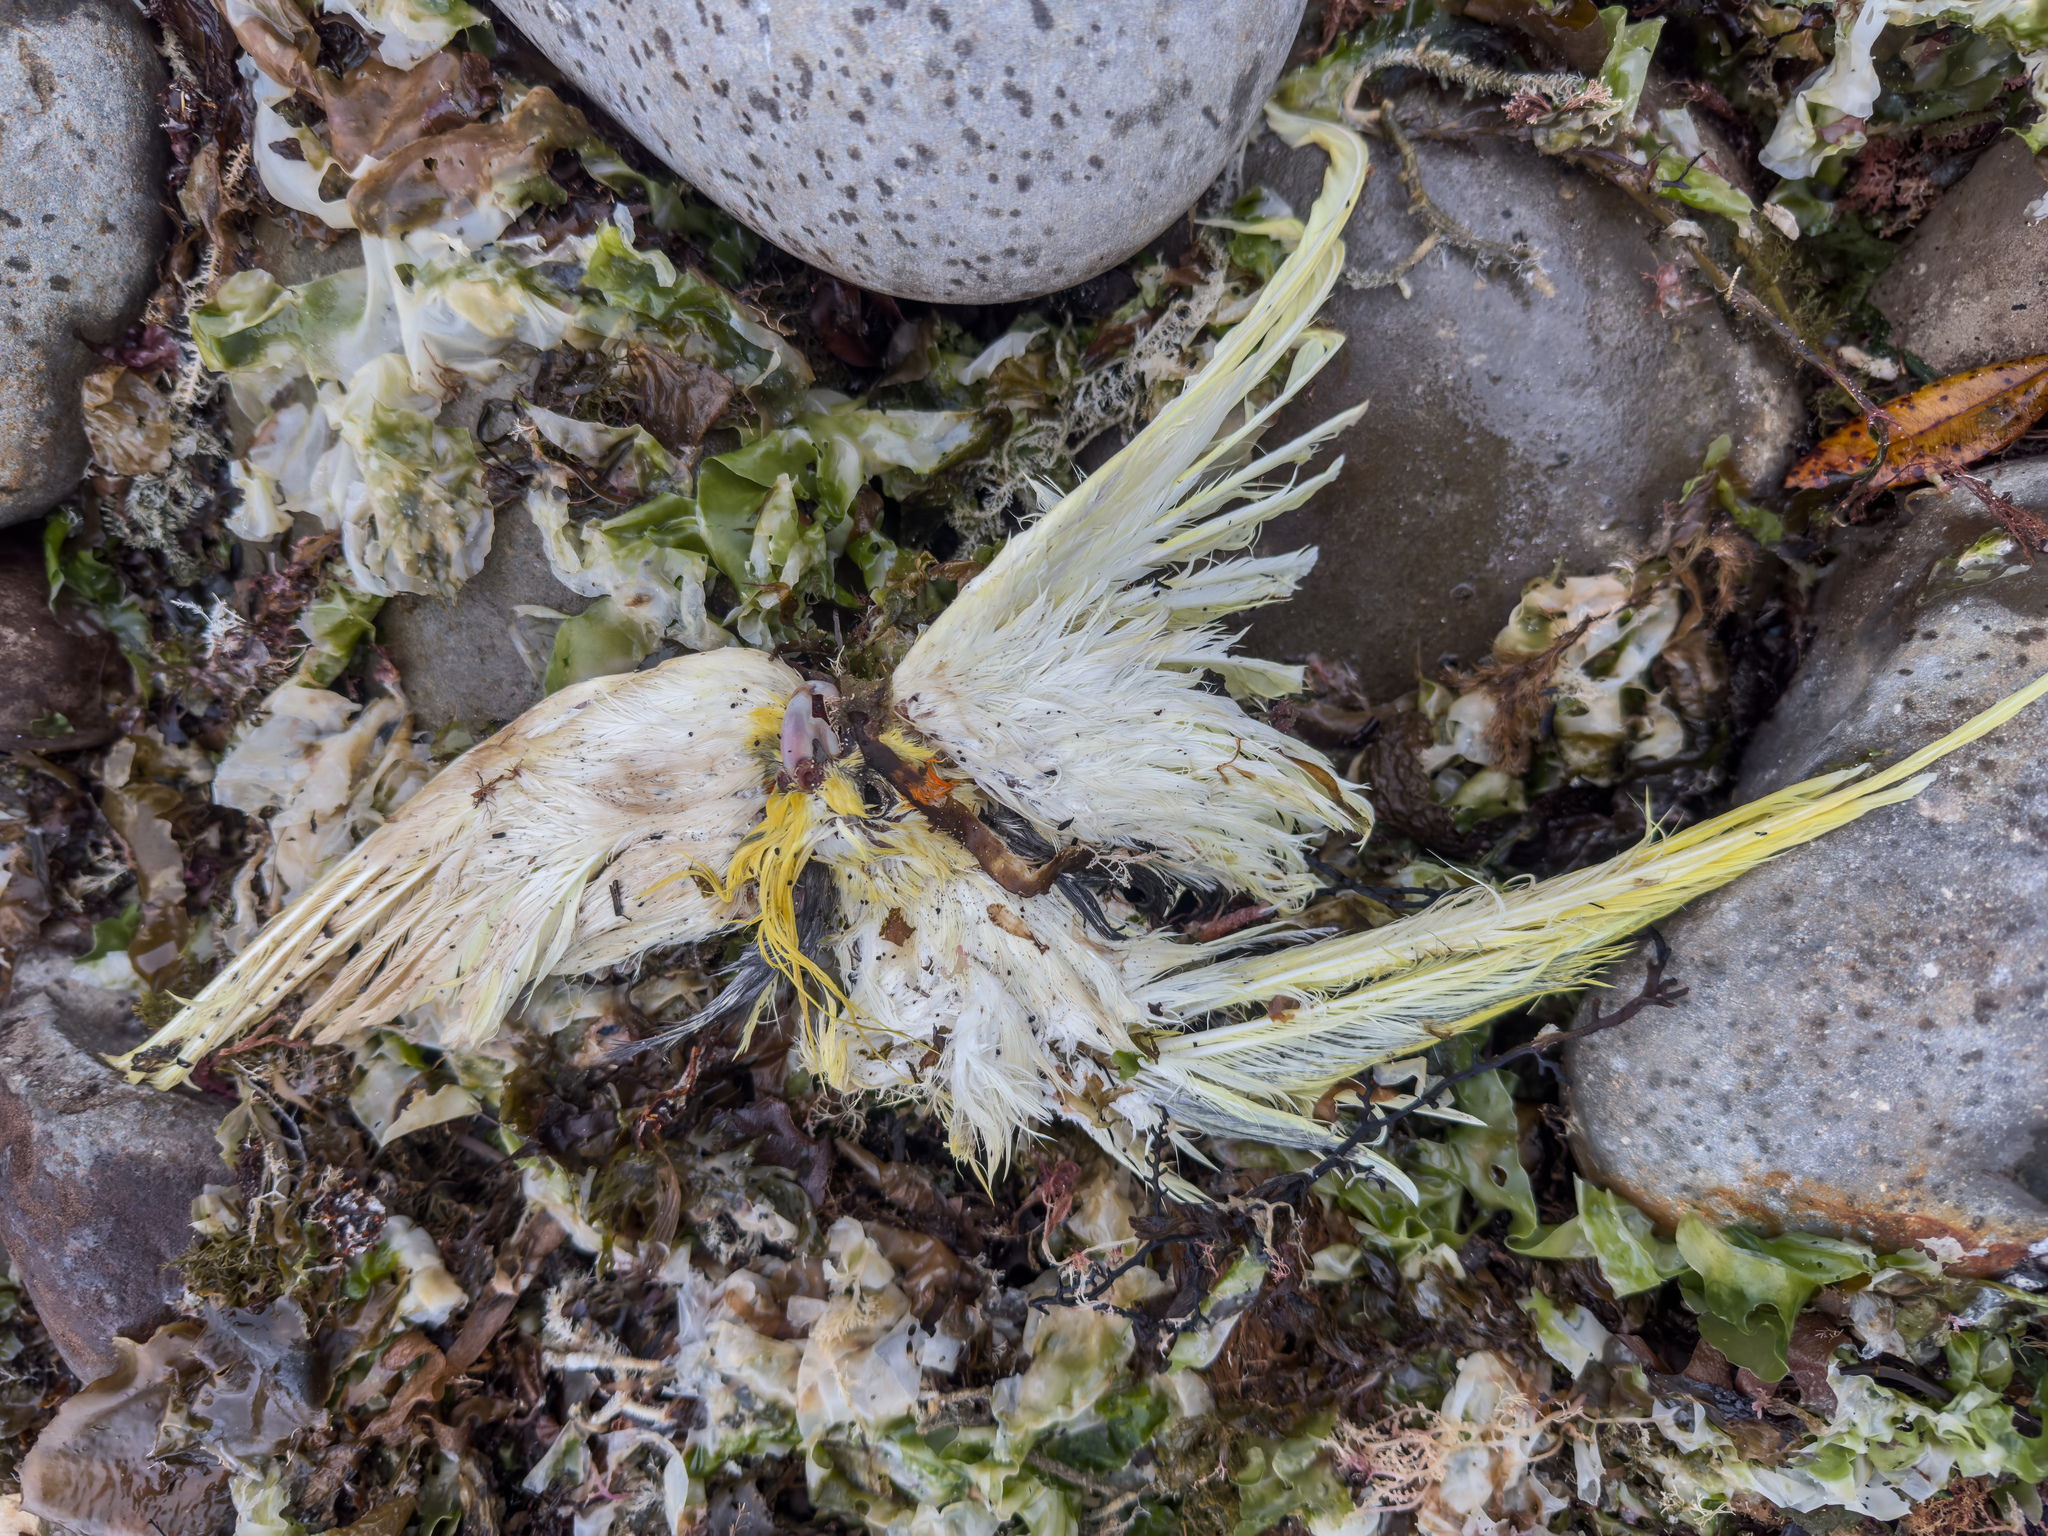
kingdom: Animalia
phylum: Chordata
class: Aves
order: Psittaciformes
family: Psittacidae
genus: Nymphicus
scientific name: Nymphicus hollandicus
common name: Cockatiel
